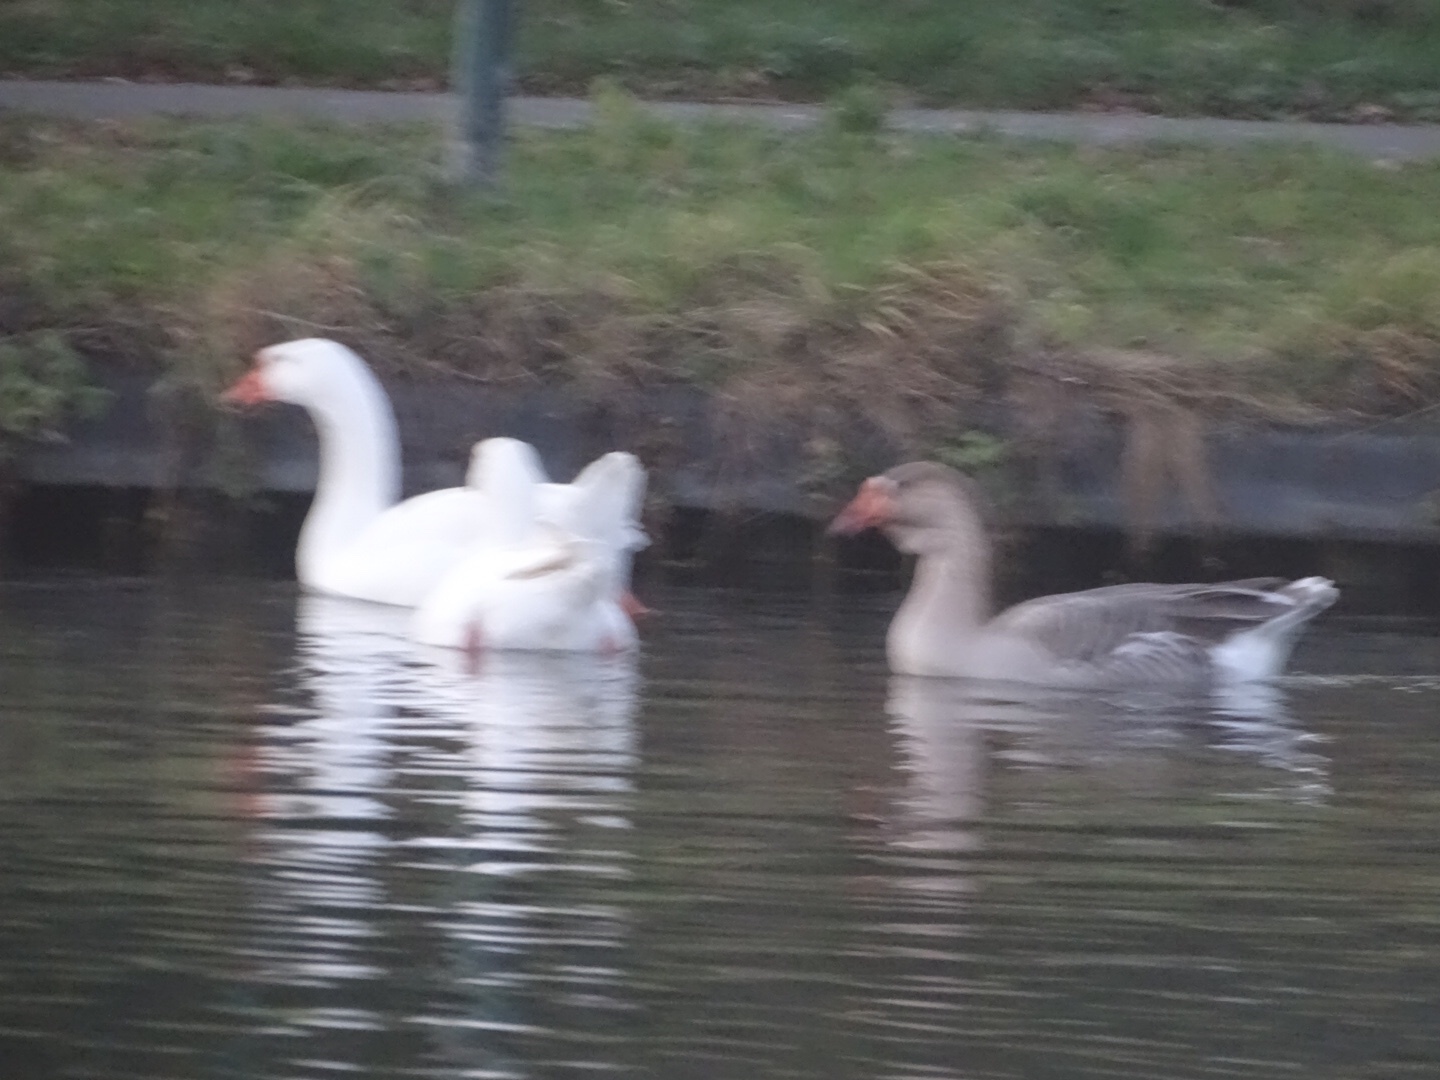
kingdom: Animalia
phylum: Chordata
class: Aves
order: Anseriformes
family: Anatidae
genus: Anser
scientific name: Anser anser
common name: Greylag goose
